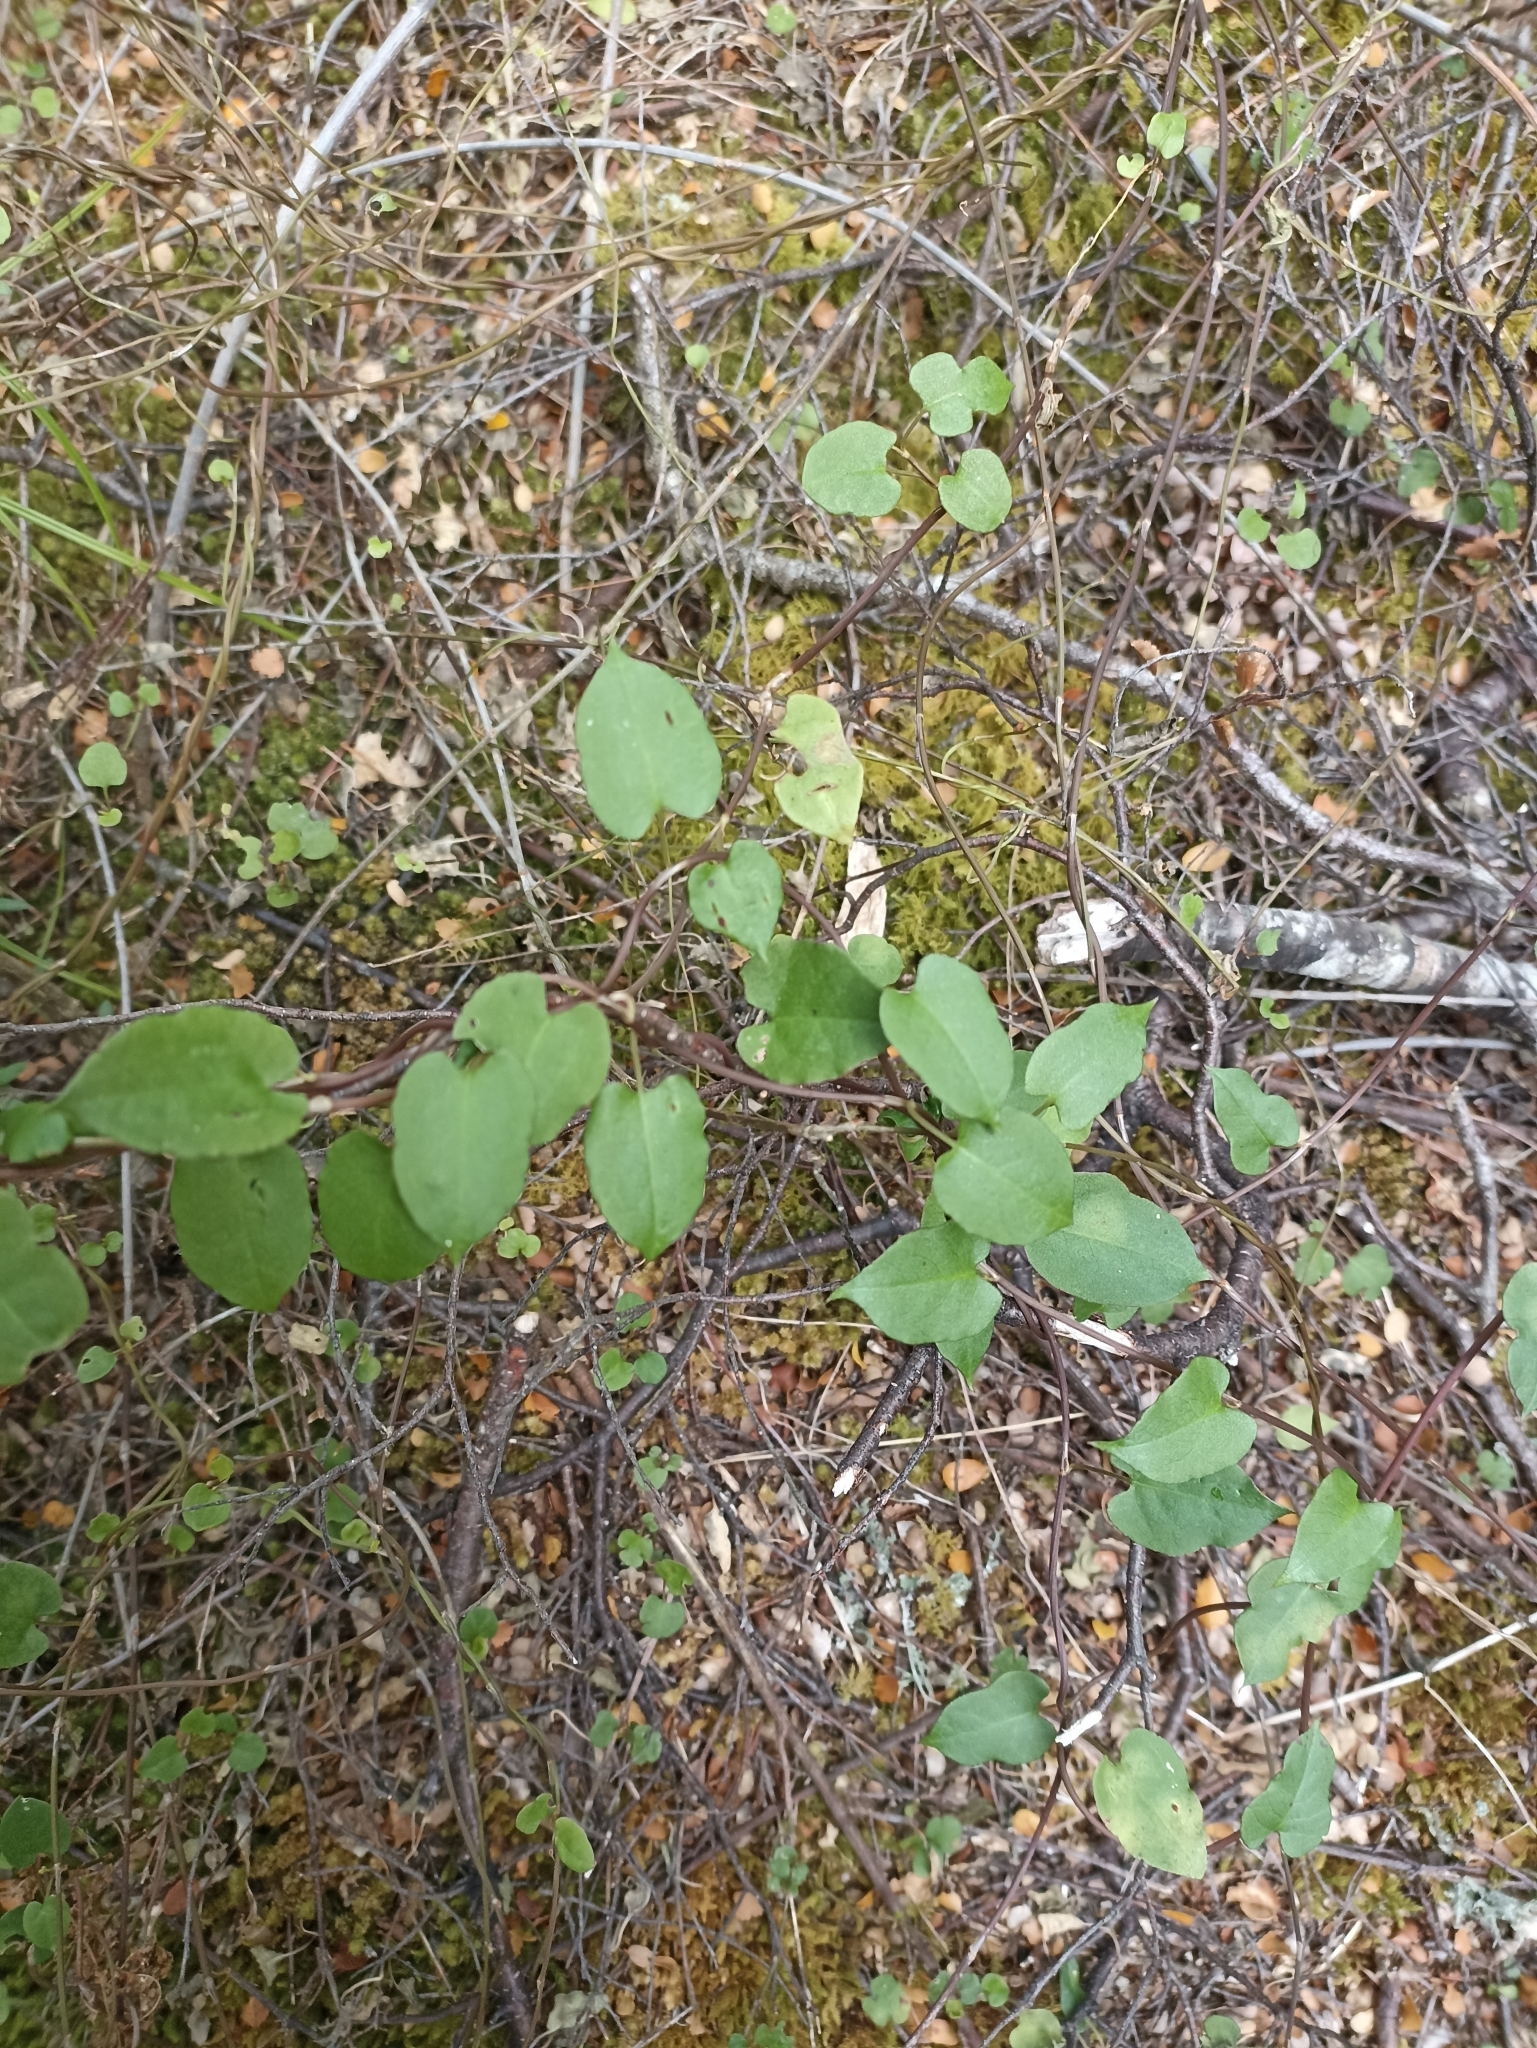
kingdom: Plantae
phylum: Tracheophyta
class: Magnoliopsida
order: Caryophyllales
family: Polygonaceae
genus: Muehlenbeckia
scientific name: Muehlenbeckia australis
